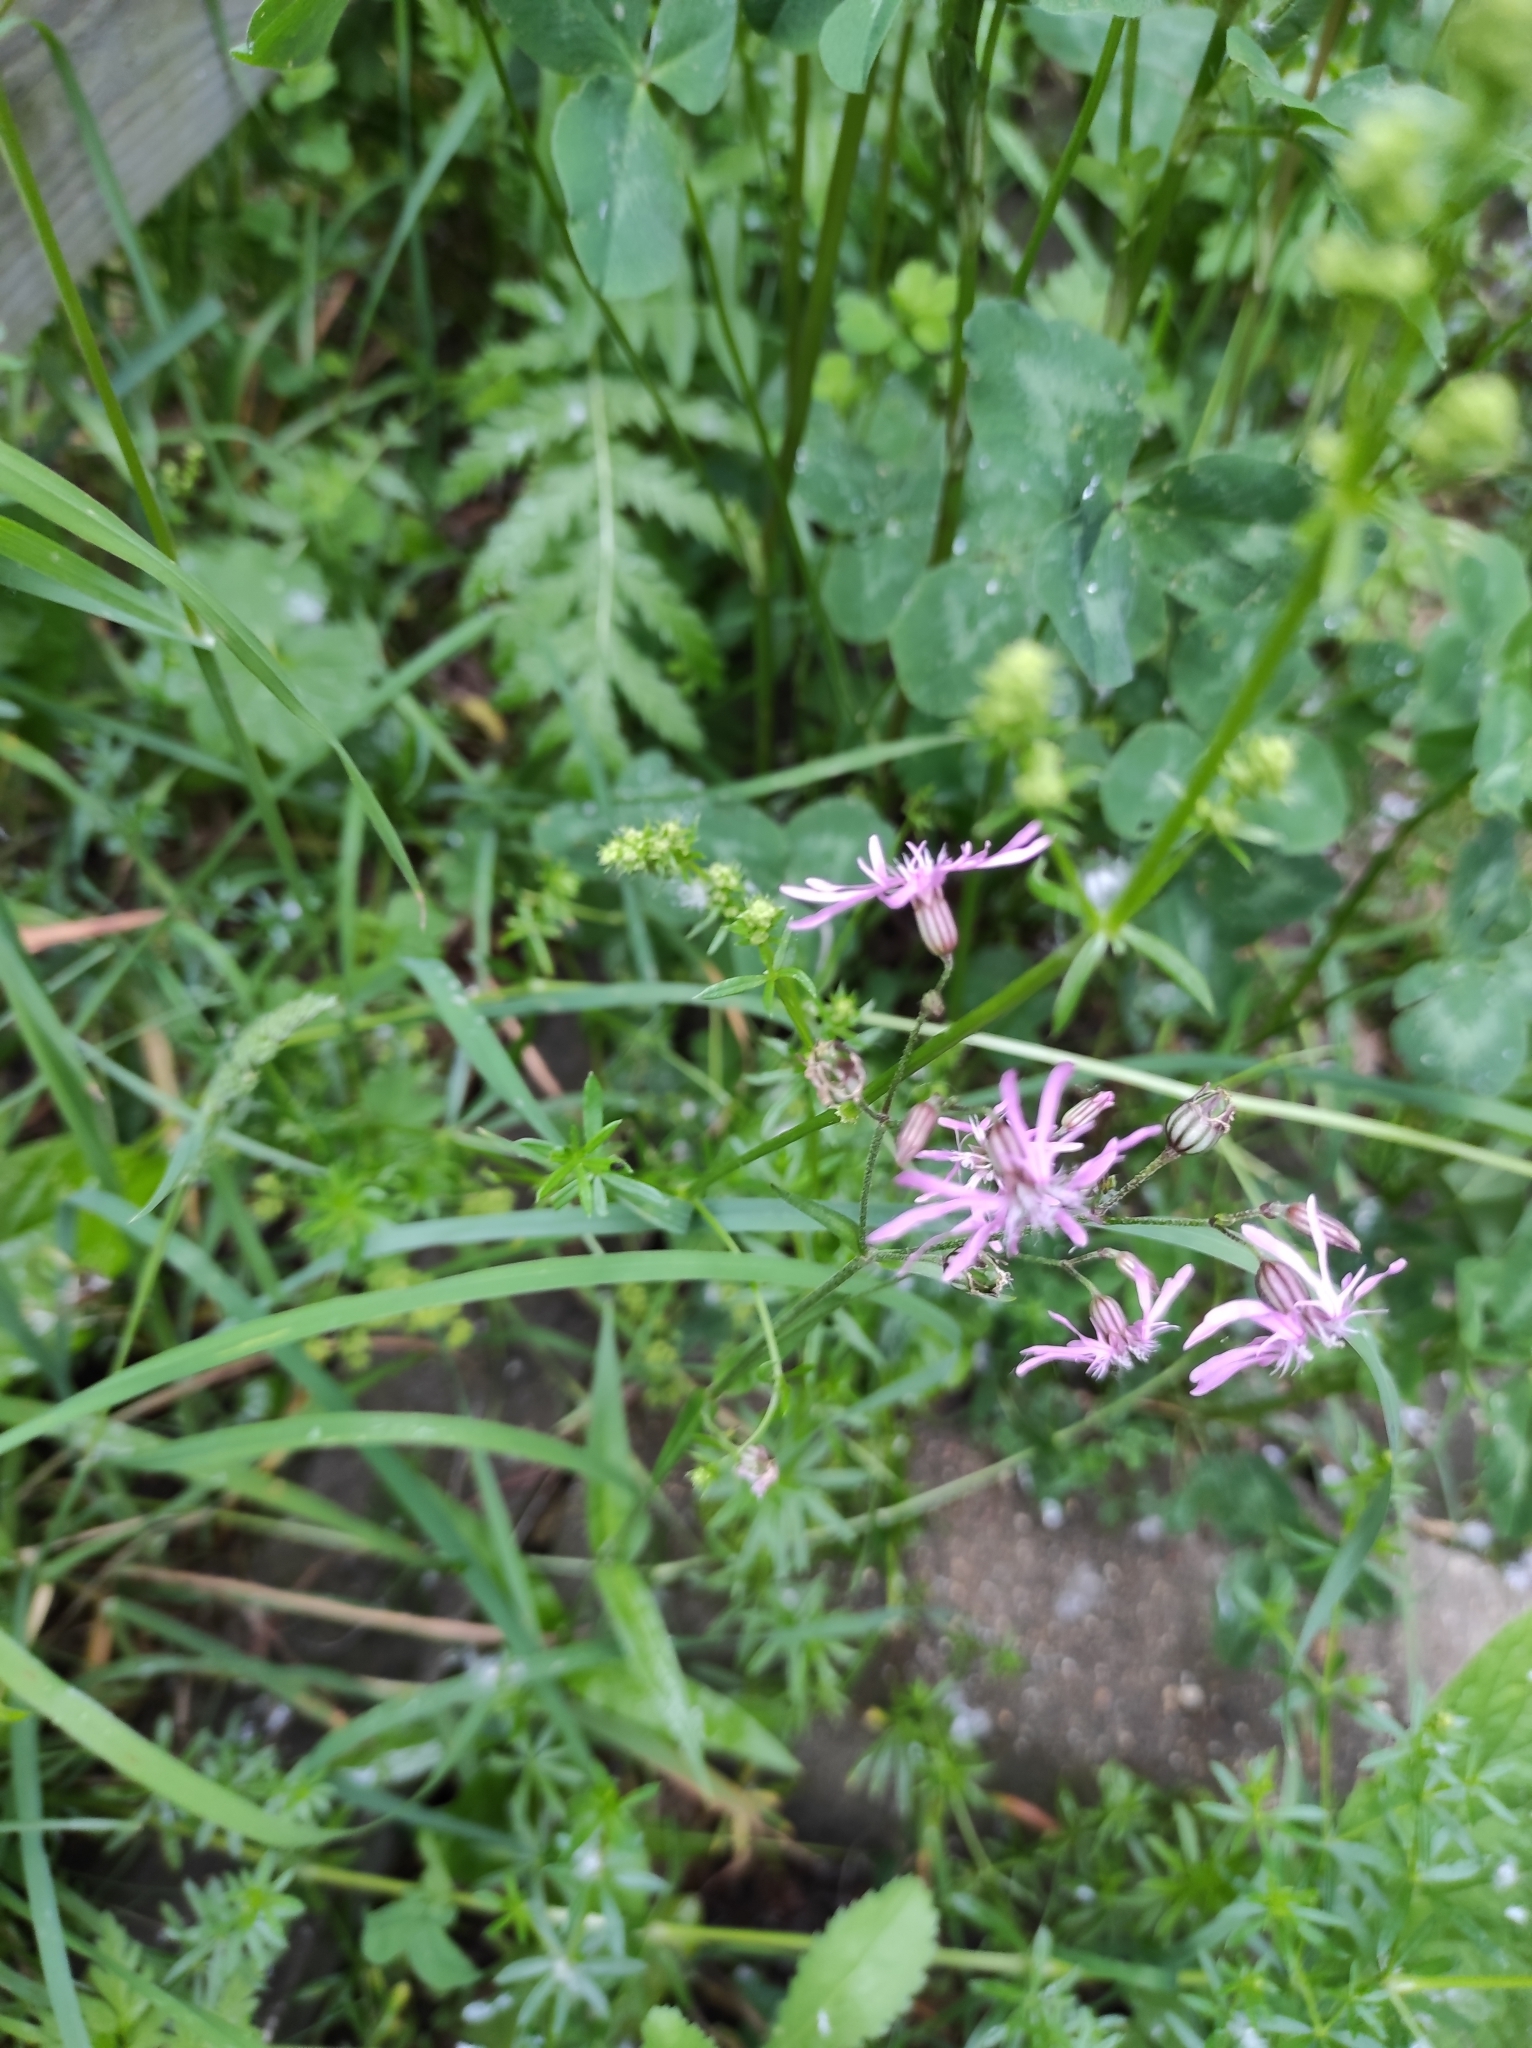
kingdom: Plantae
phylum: Tracheophyta
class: Magnoliopsida
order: Caryophyllales
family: Caryophyllaceae
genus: Silene
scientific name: Silene flos-cuculi
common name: Ragged-robin
